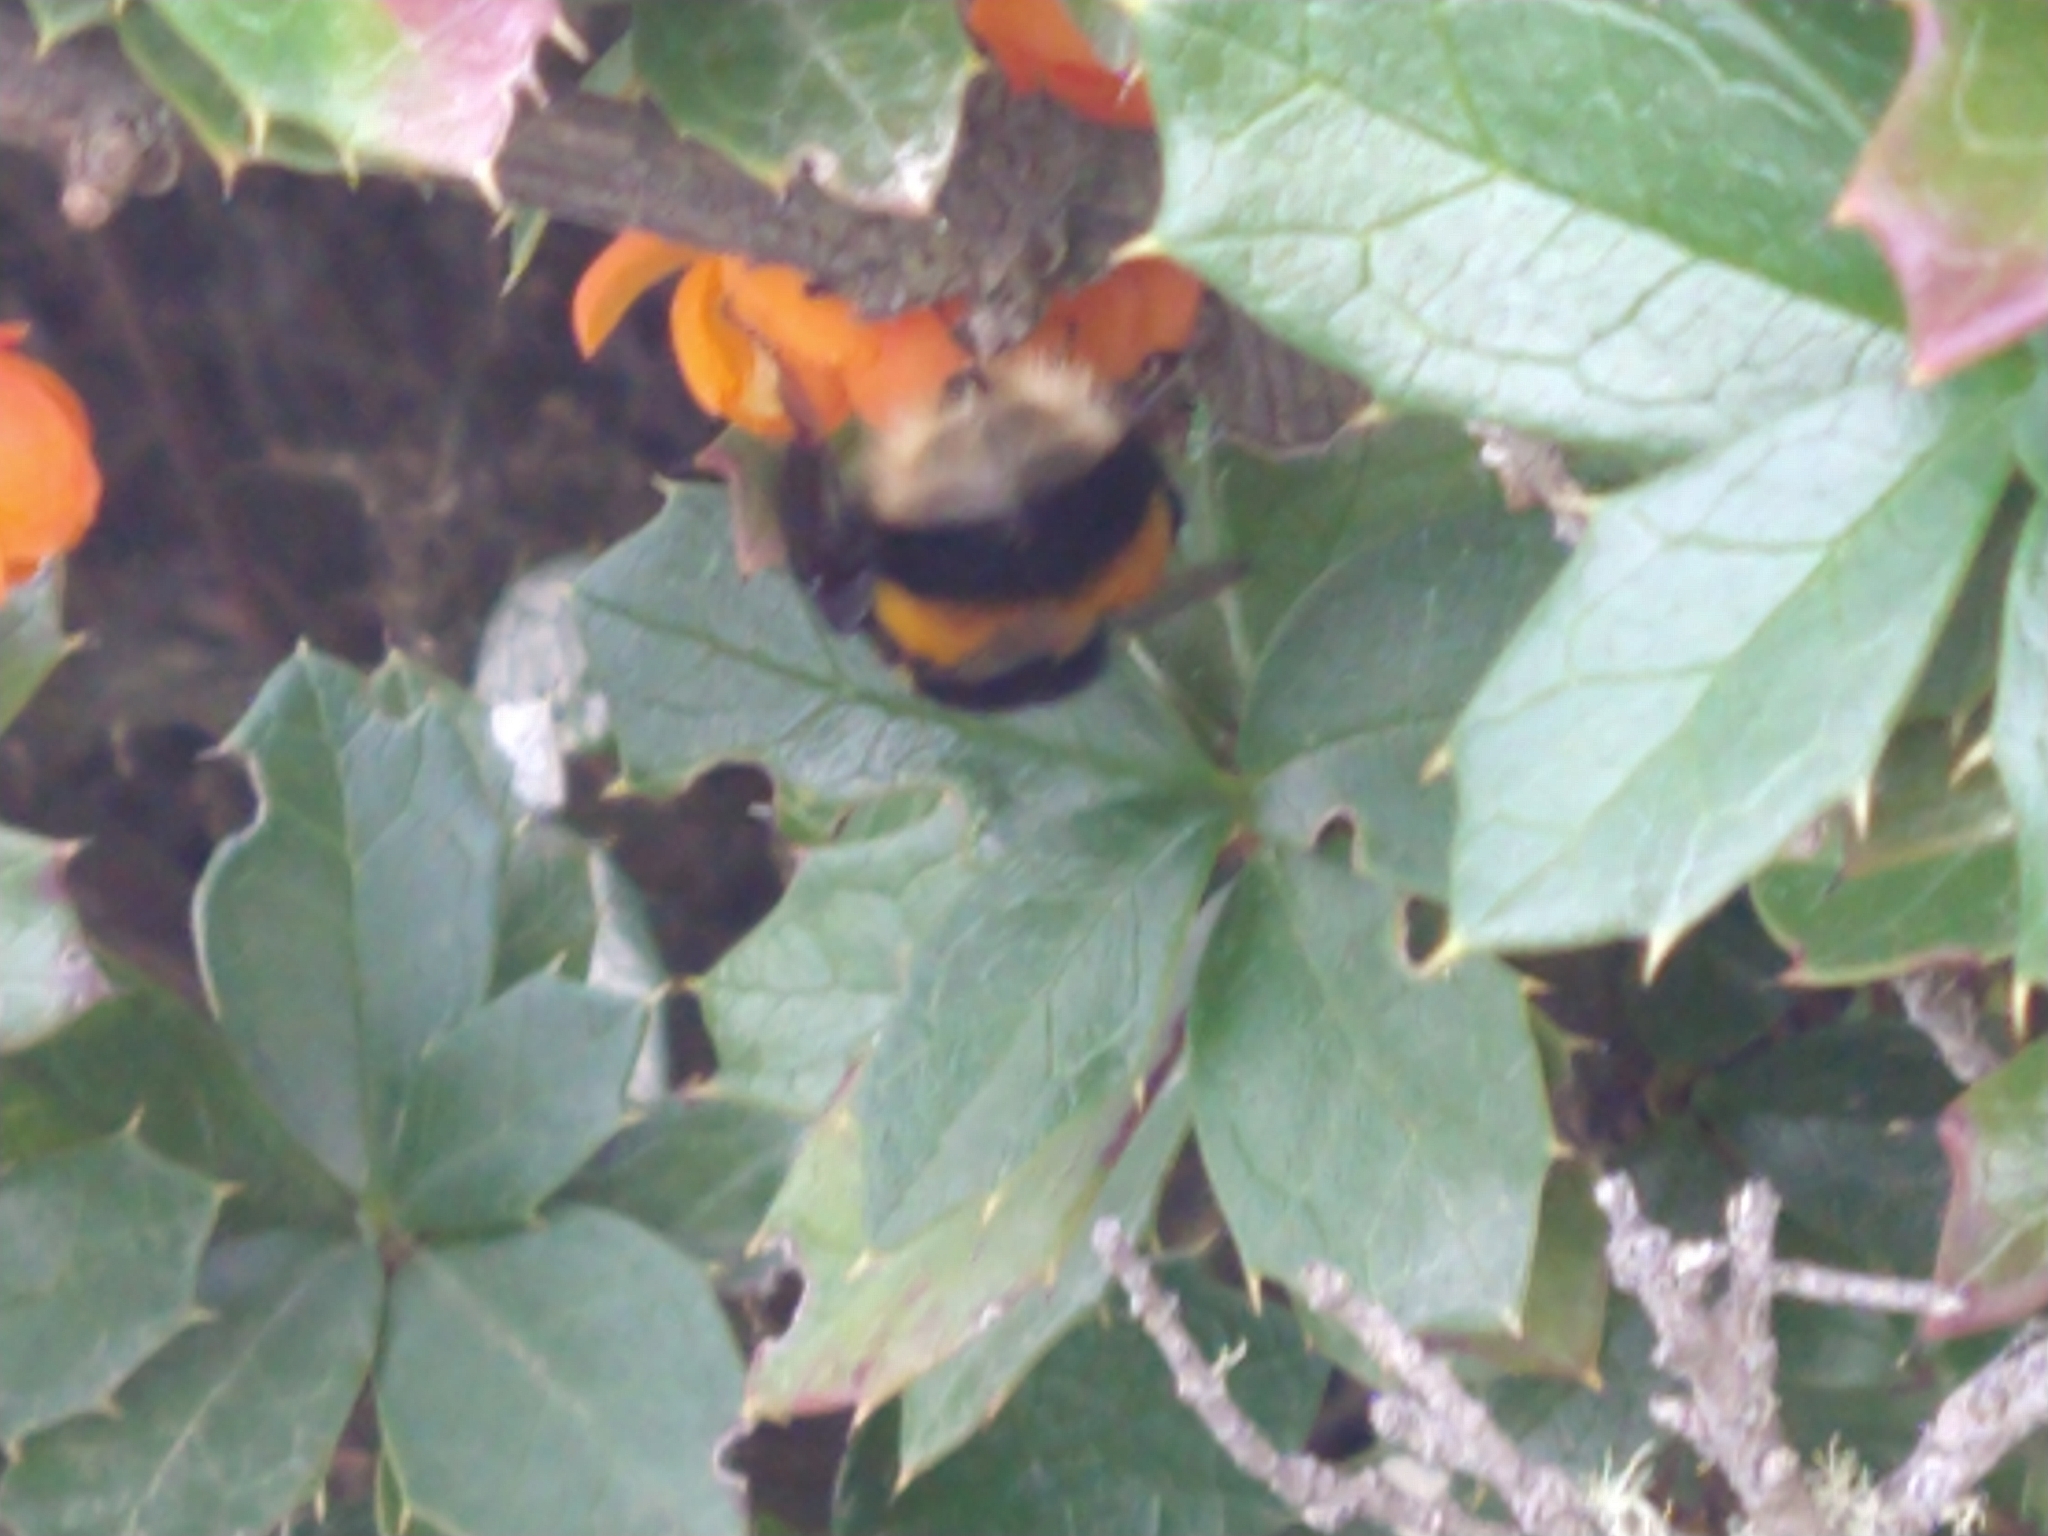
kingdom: Animalia
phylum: Arthropoda
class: Insecta
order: Hymenoptera
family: Apidae
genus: Bombus
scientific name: Bombus terrestris
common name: Buff-tailed bumblebee
